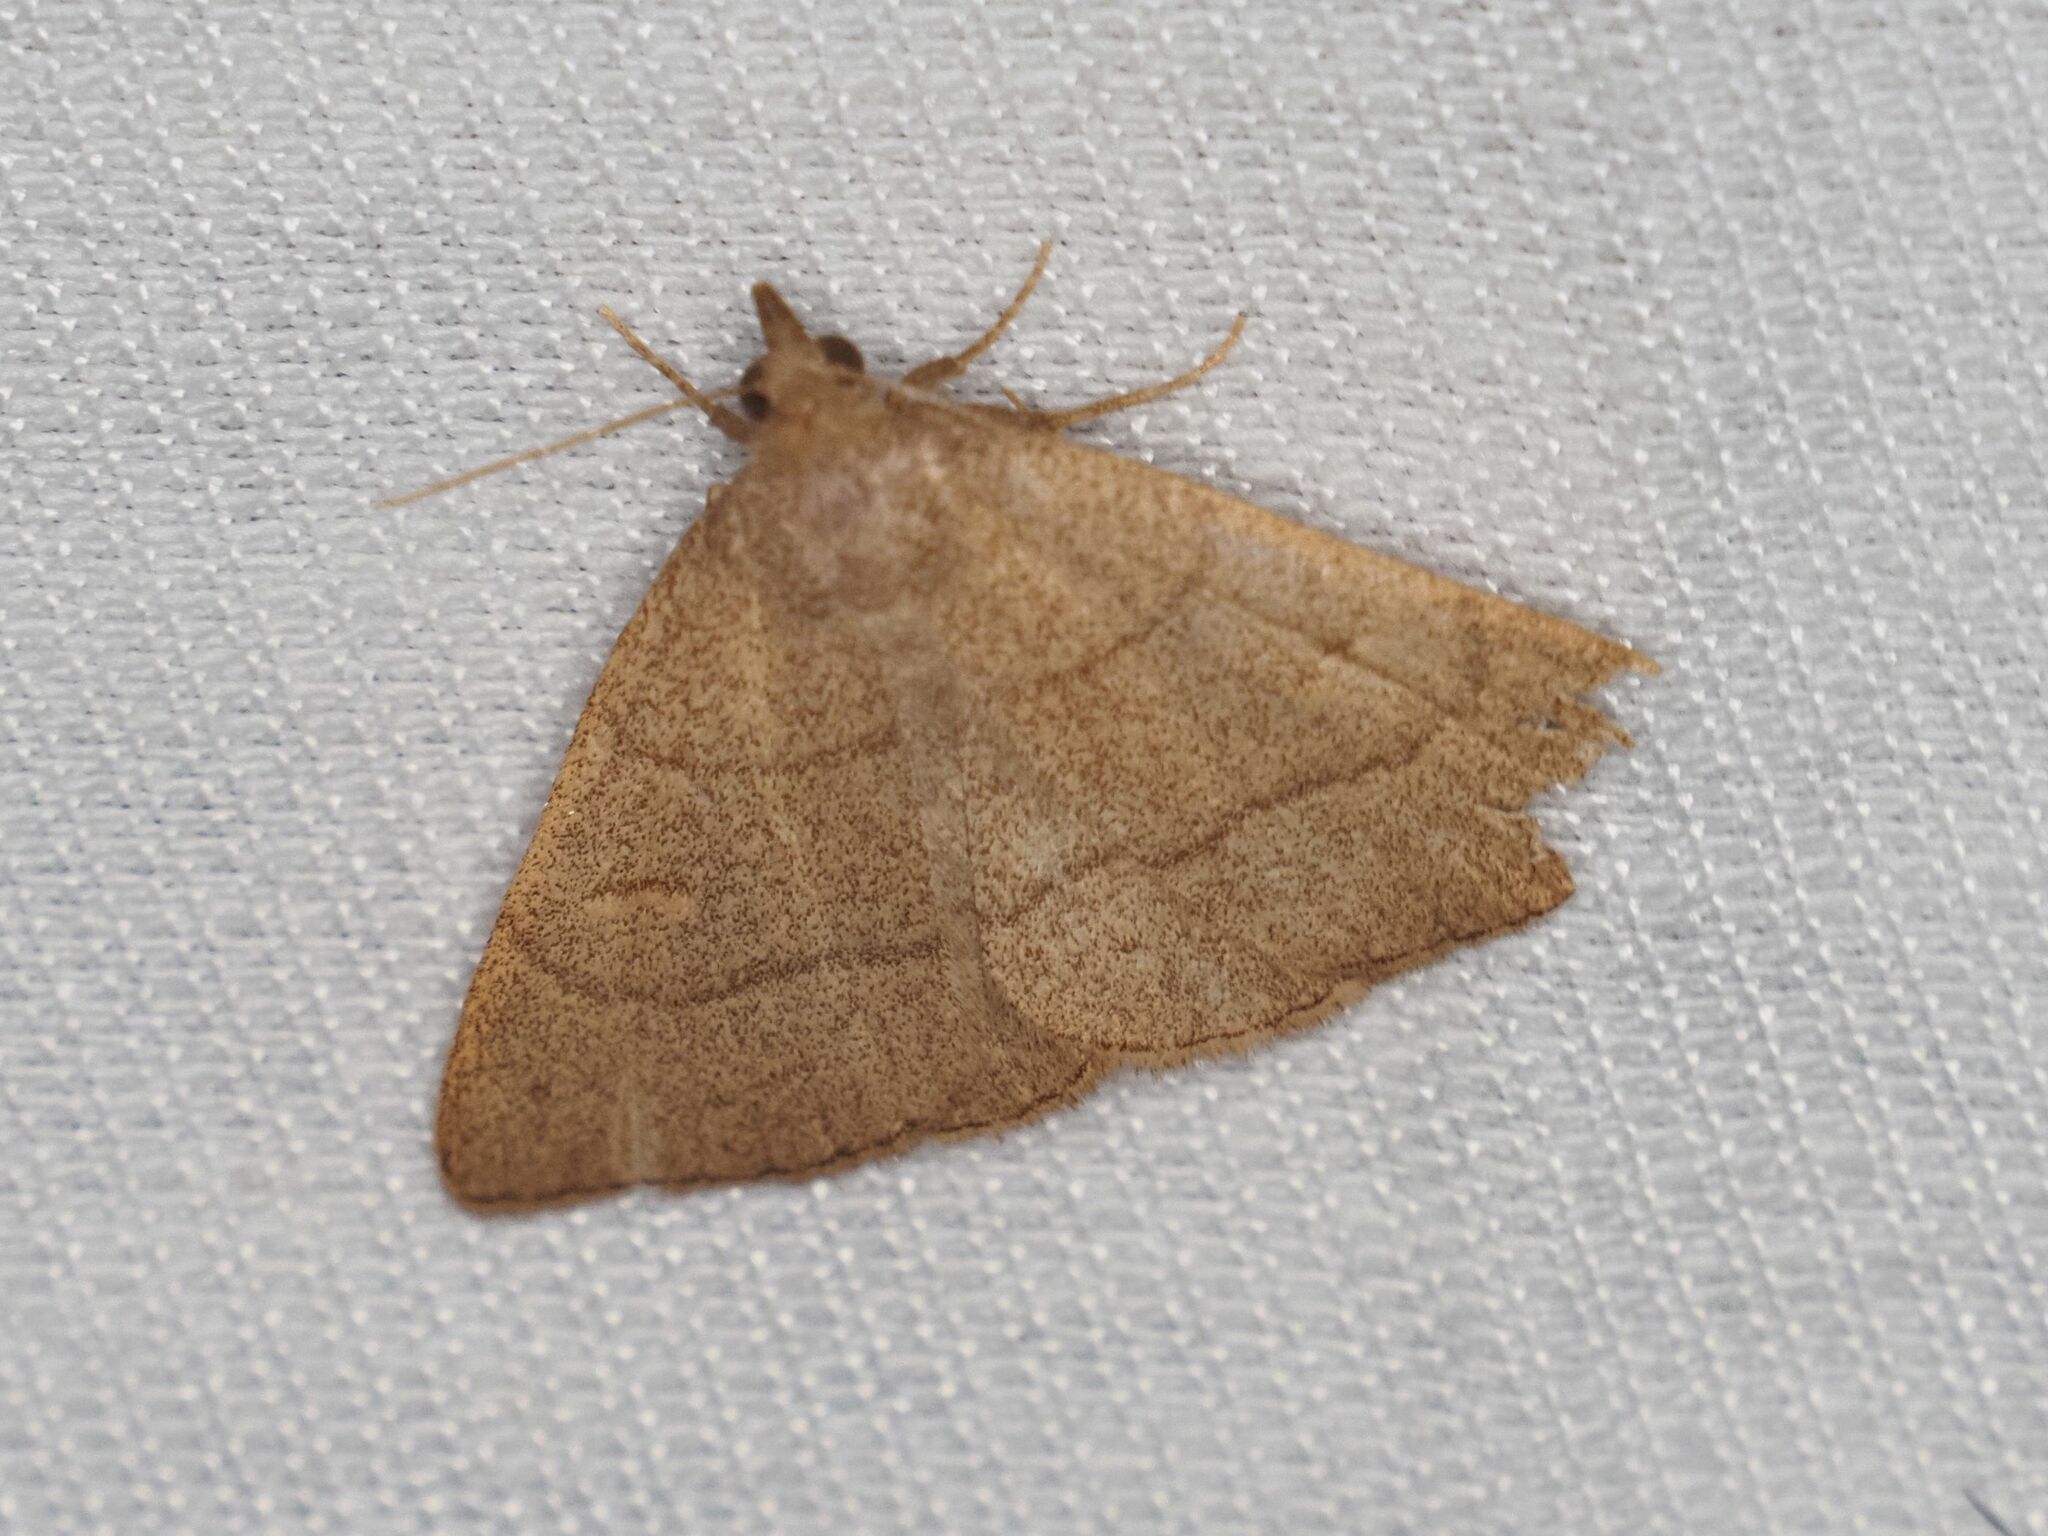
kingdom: Animalia
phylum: Arthropoda
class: Insecta
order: Lepidoptera
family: Erebidae
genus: Paracolax
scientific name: Paracolax tristalis
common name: Clay fan-foot
